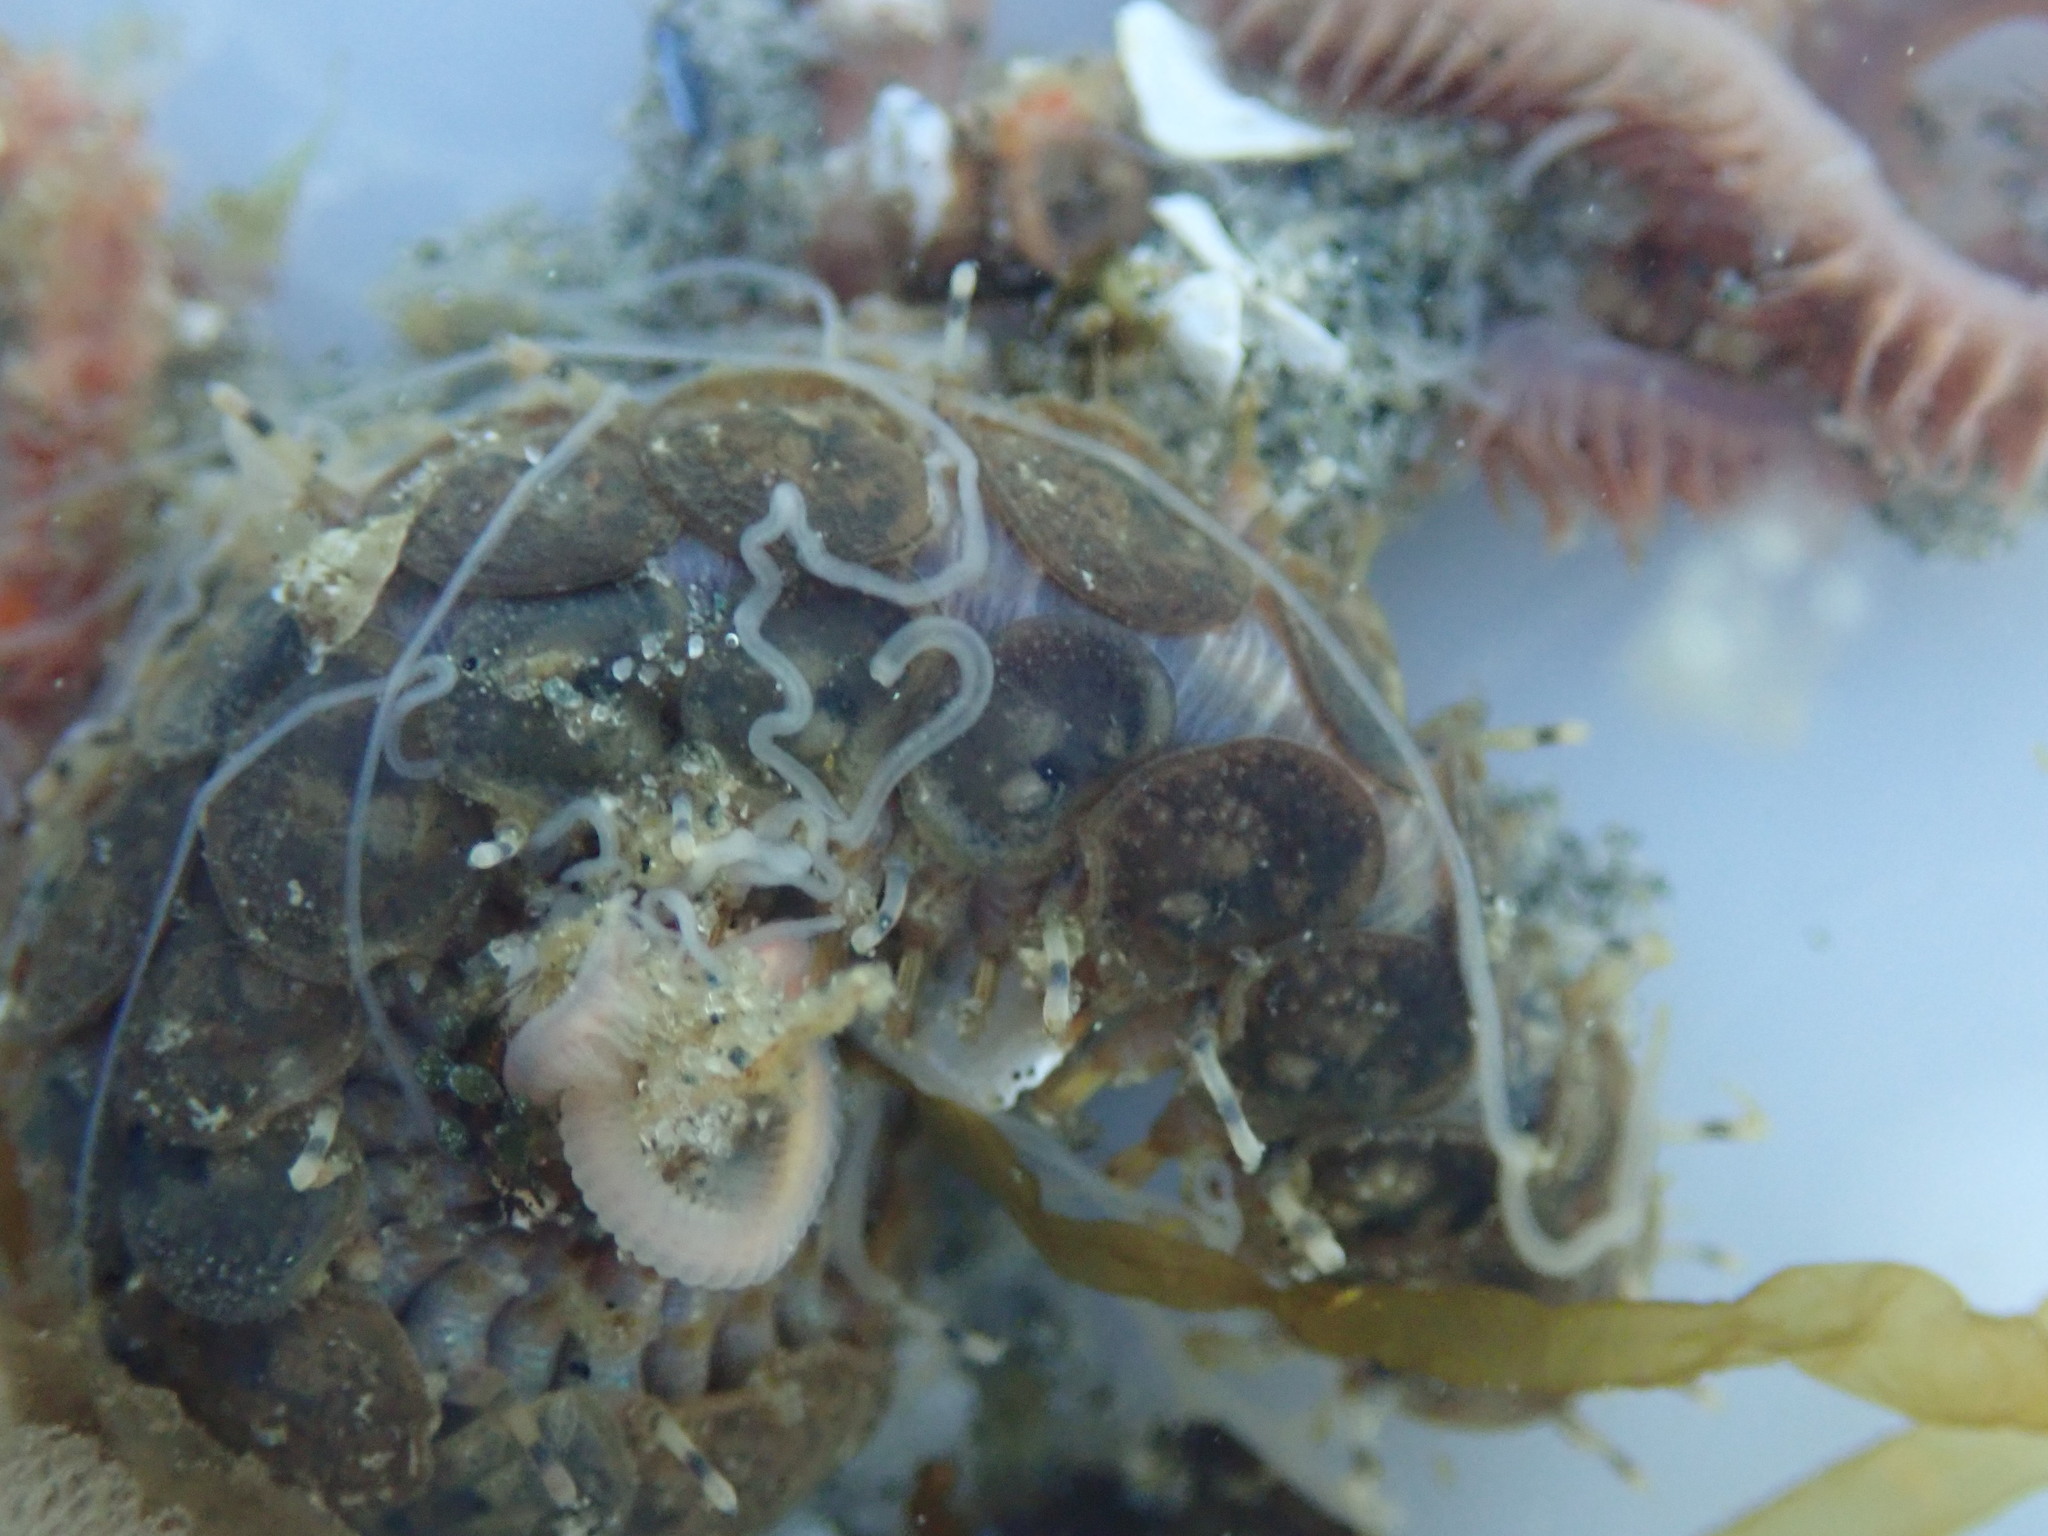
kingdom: Animalia
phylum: Annelida
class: Polychaeta
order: Phyllodocida
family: Polynoidae
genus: Halosydna
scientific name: Halosydna brevisetosa
